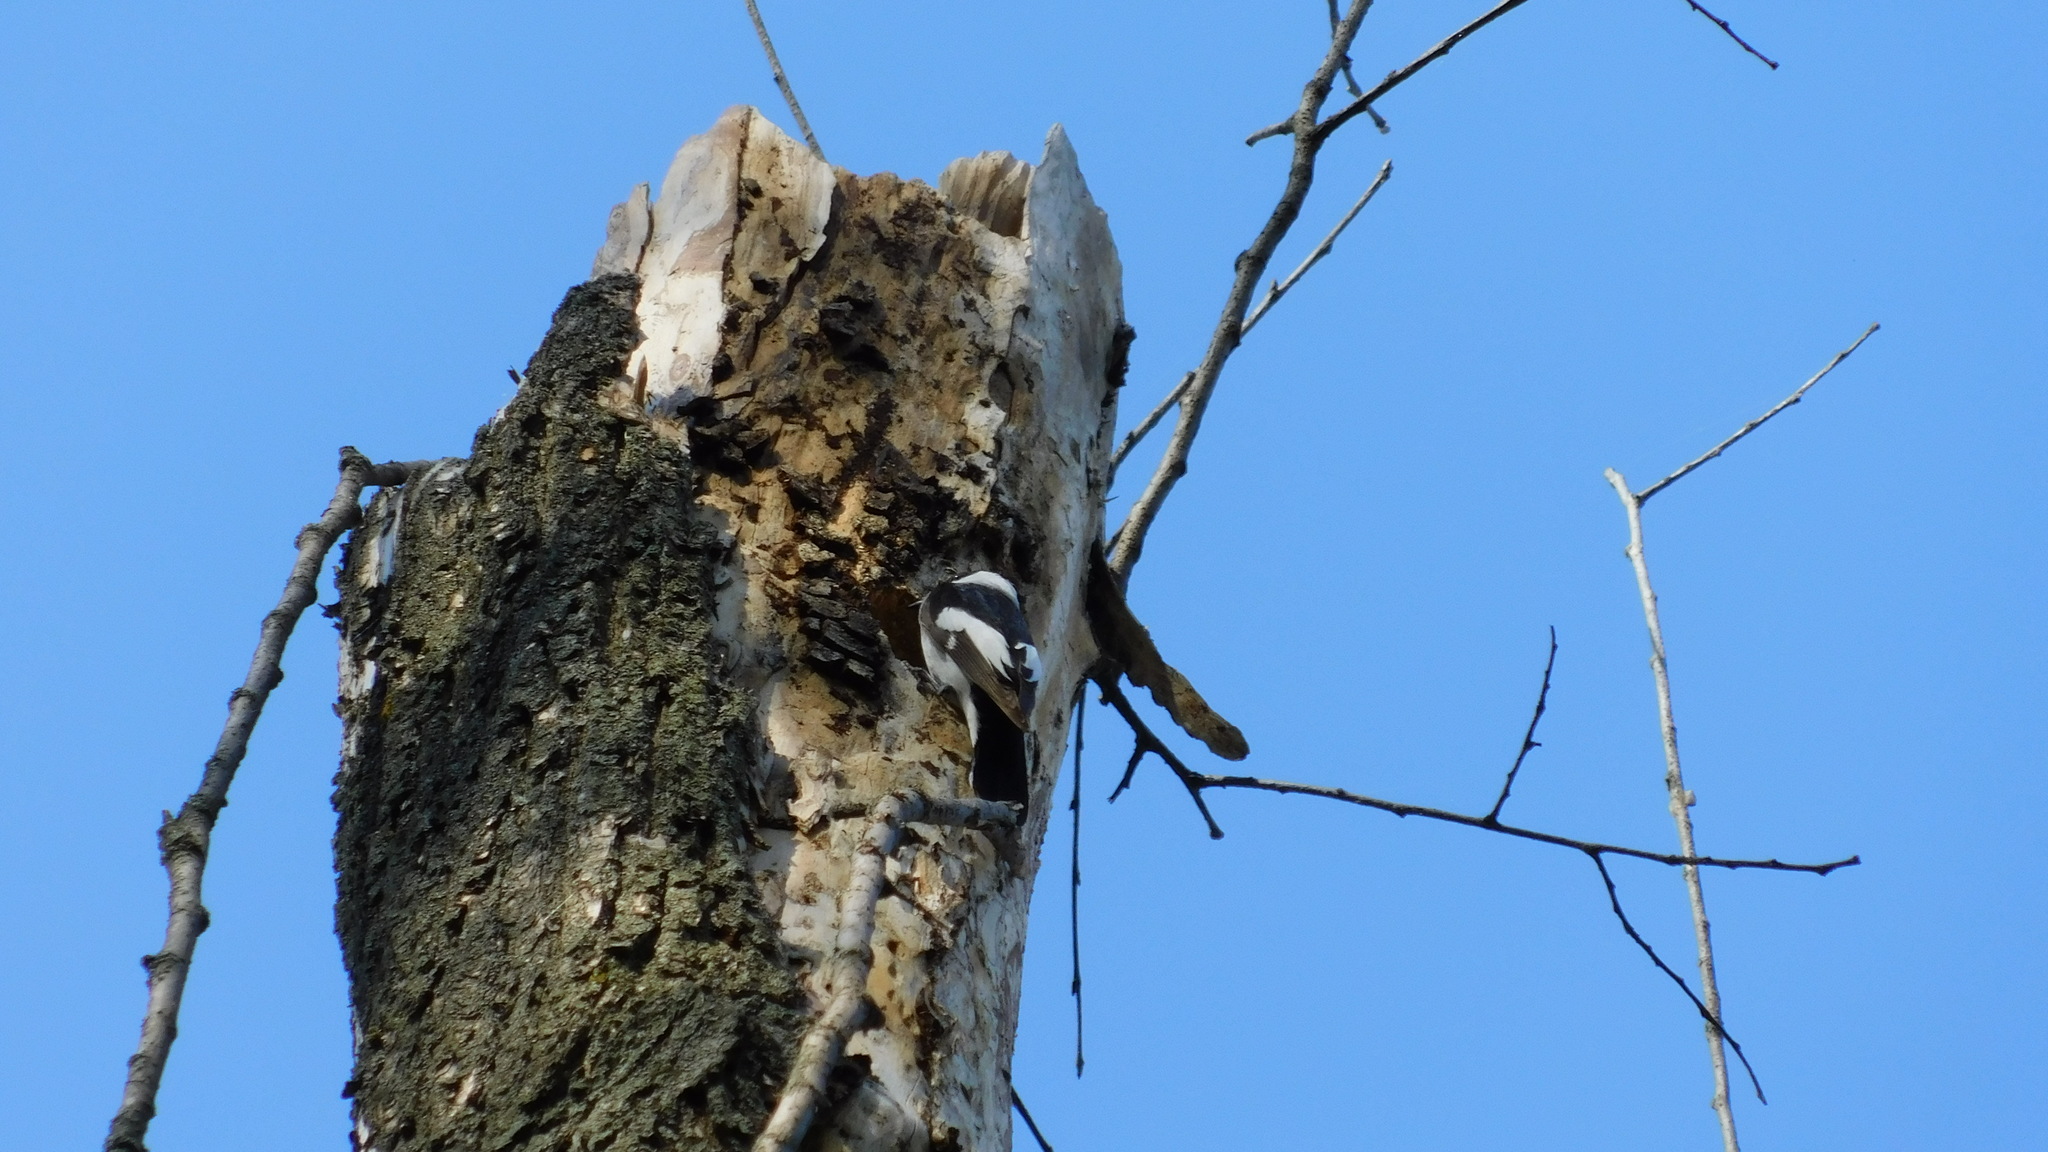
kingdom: Animalia
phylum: Chordata
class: Aves
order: Passeriformes
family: Muscicapidae
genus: Ficedula
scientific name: Ficedula albicollis
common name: Collared flycatcher
